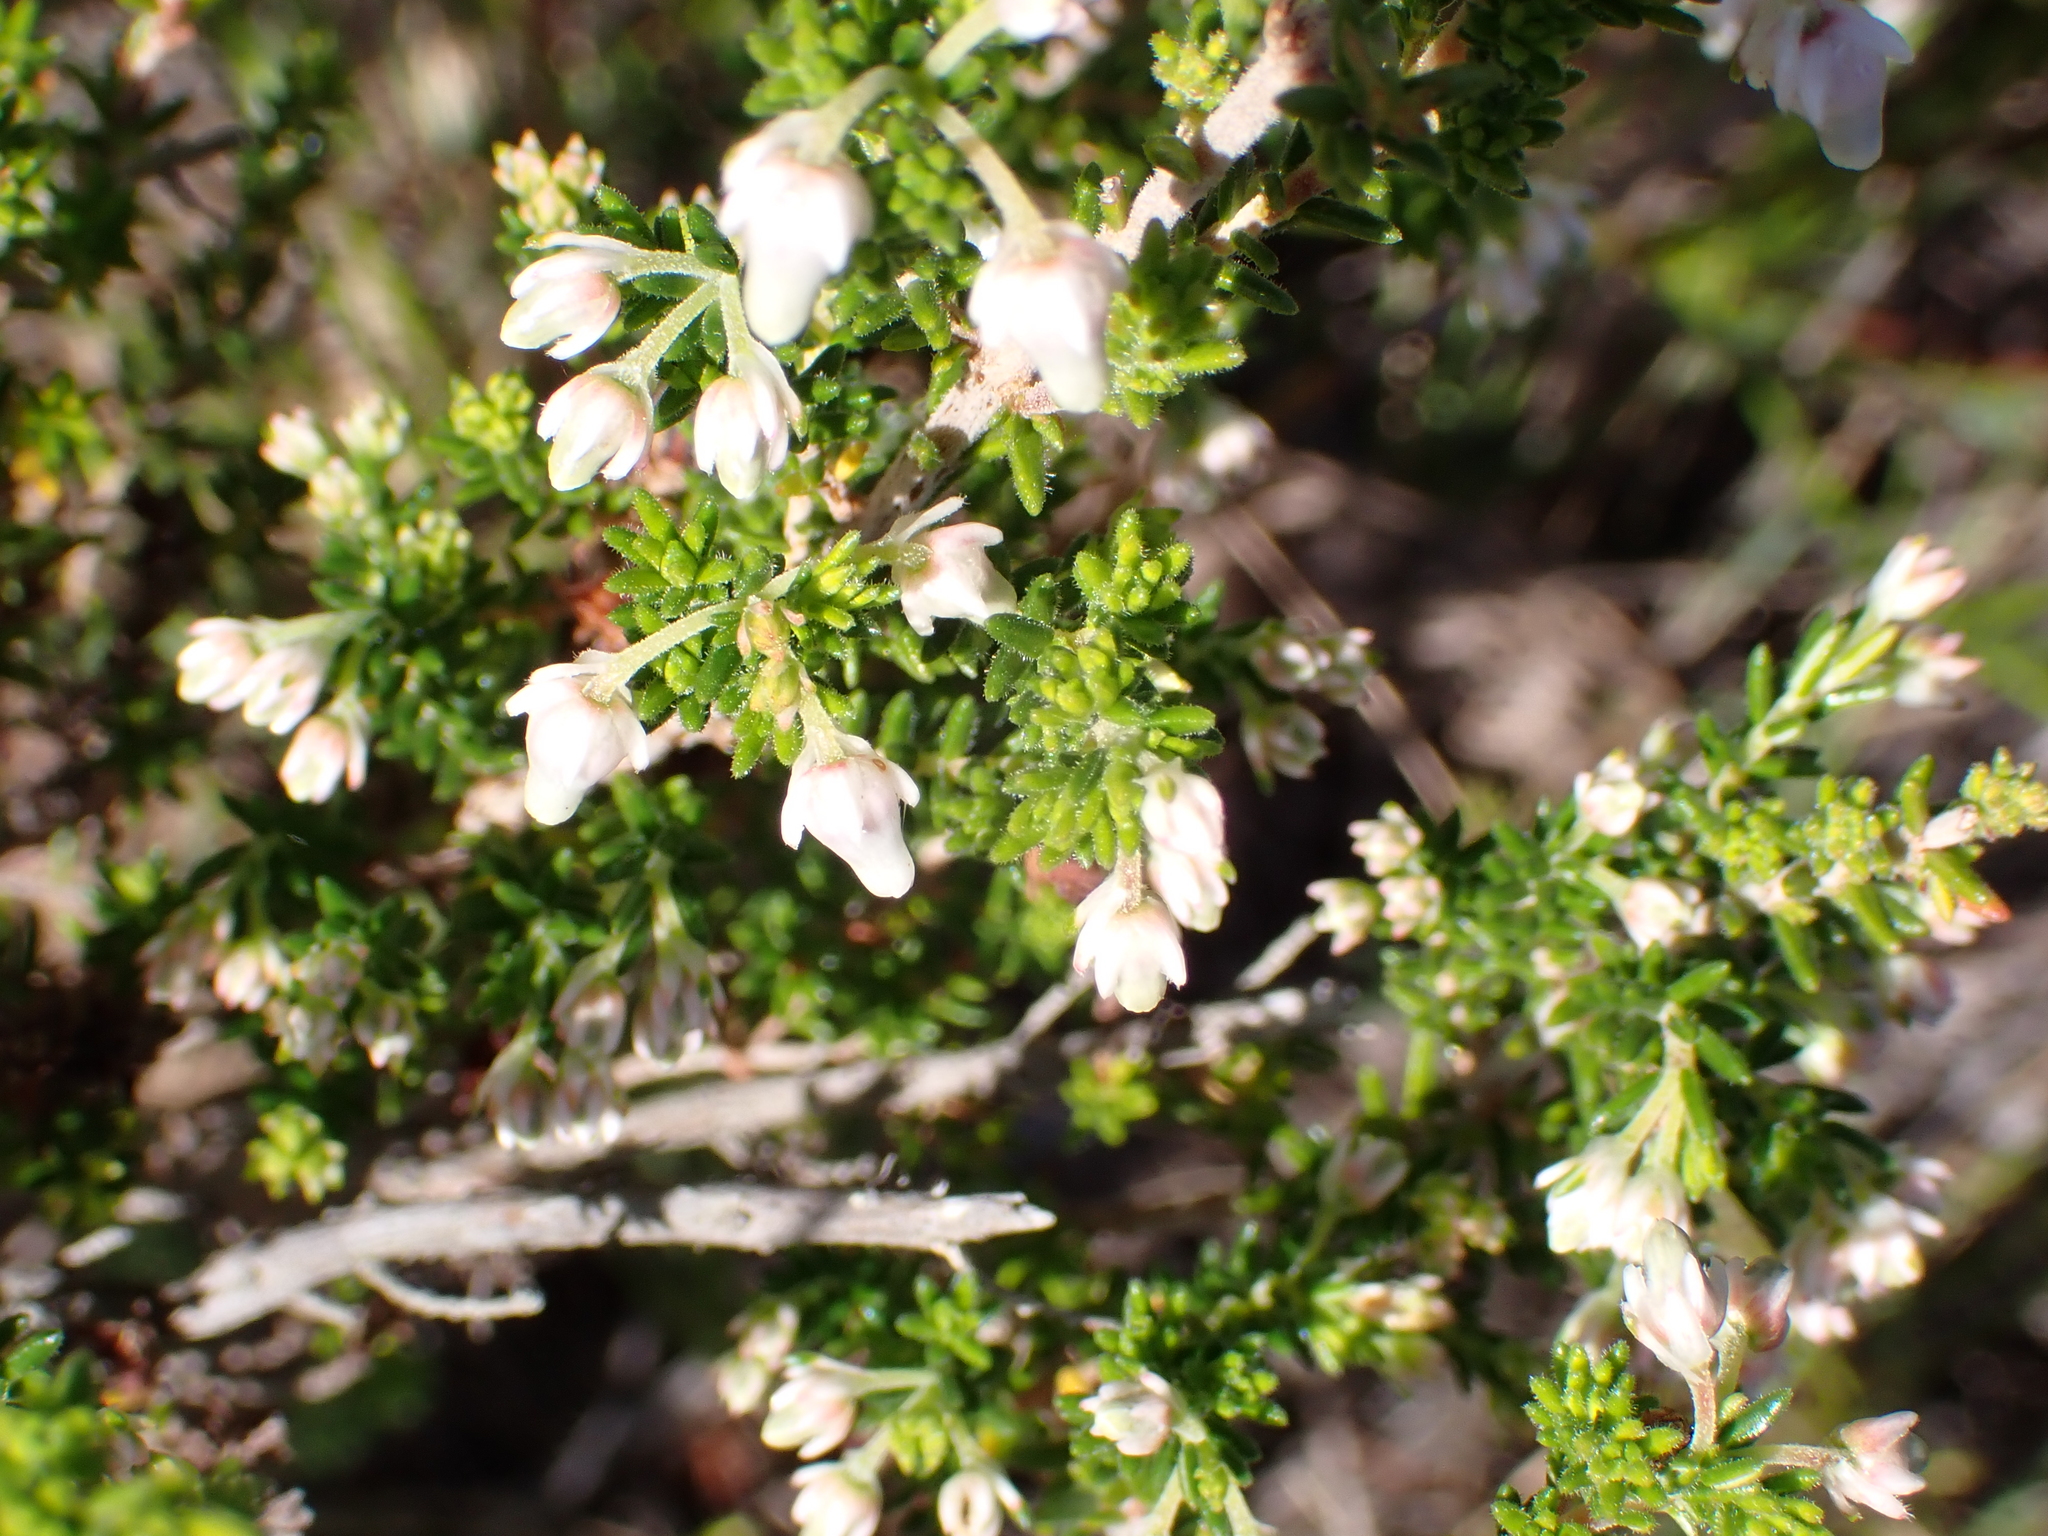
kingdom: Plantae
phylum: Tracheophyta
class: Magnoliopsida
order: Ericales
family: Ericaceae
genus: Erica
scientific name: Erica glomiflora
